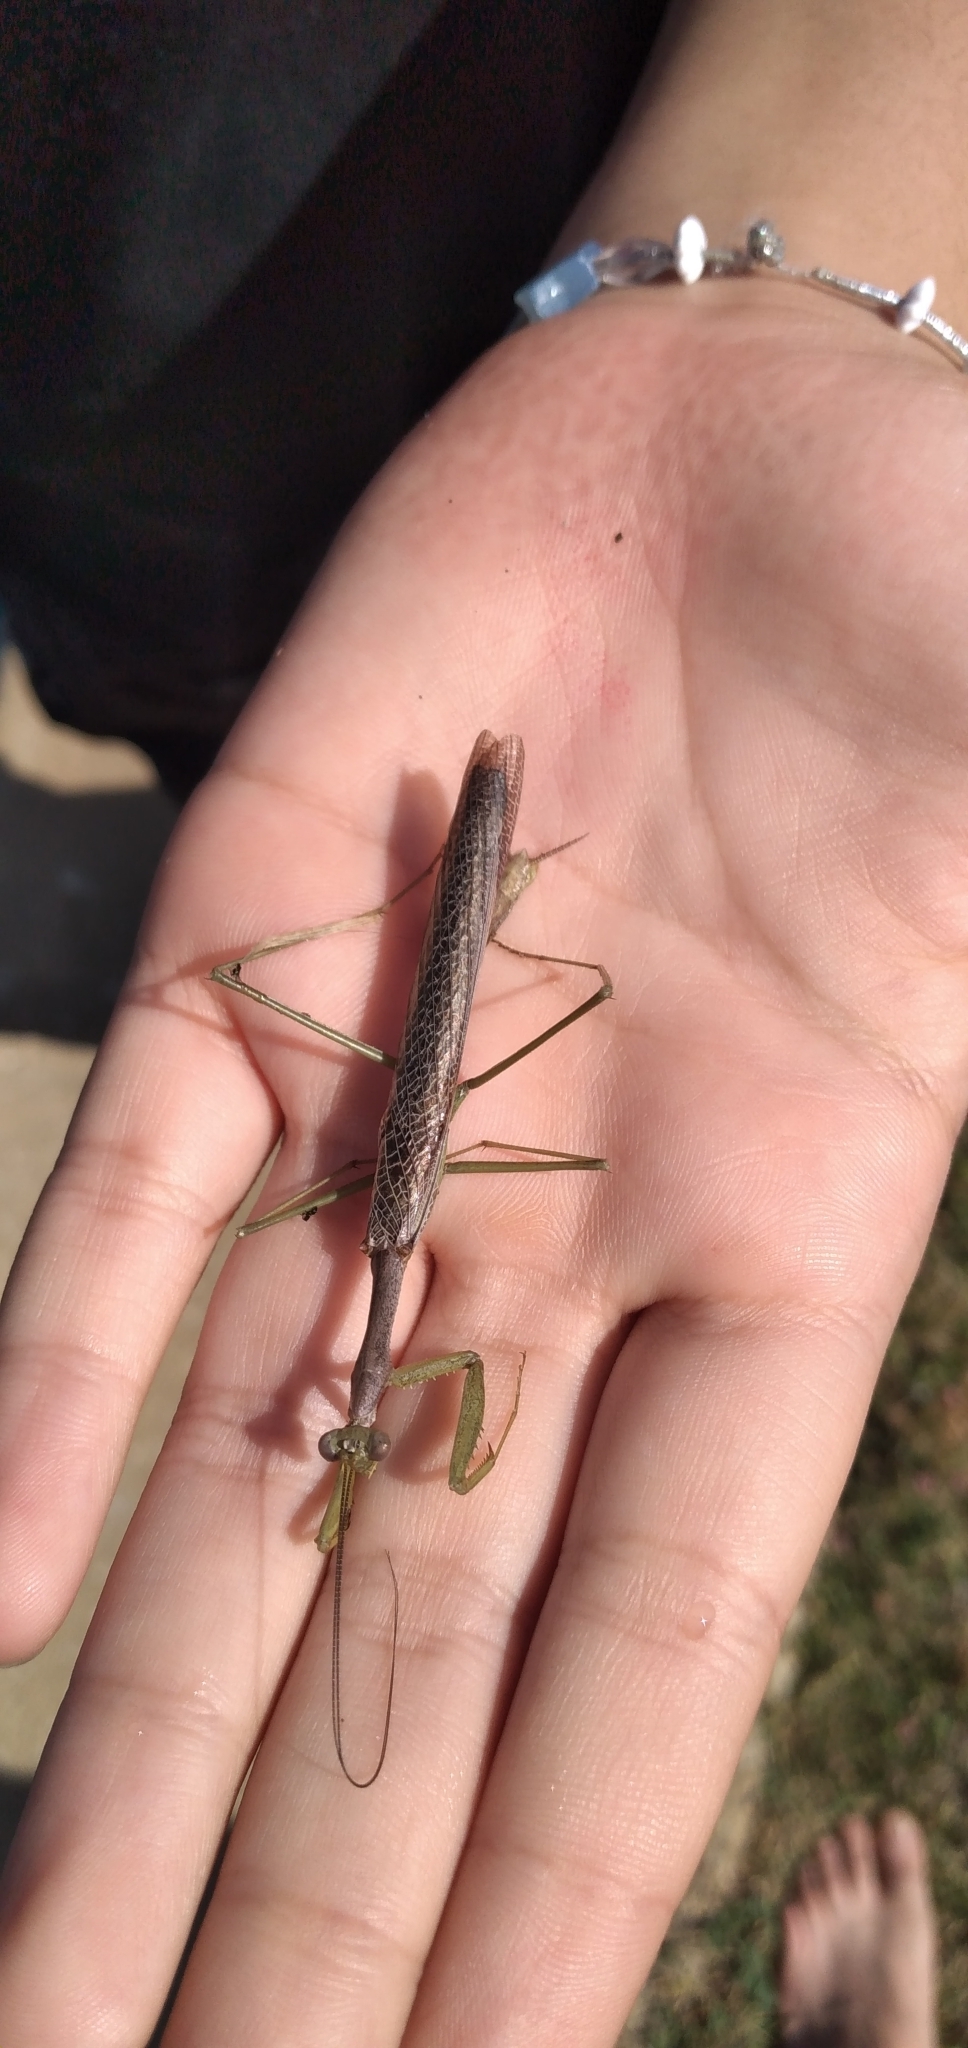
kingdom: Animalia
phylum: Arthropoda
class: Insecta
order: Mantodea
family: Coptopterygidae
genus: Coptopteryx
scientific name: Coptopteryx gayi
